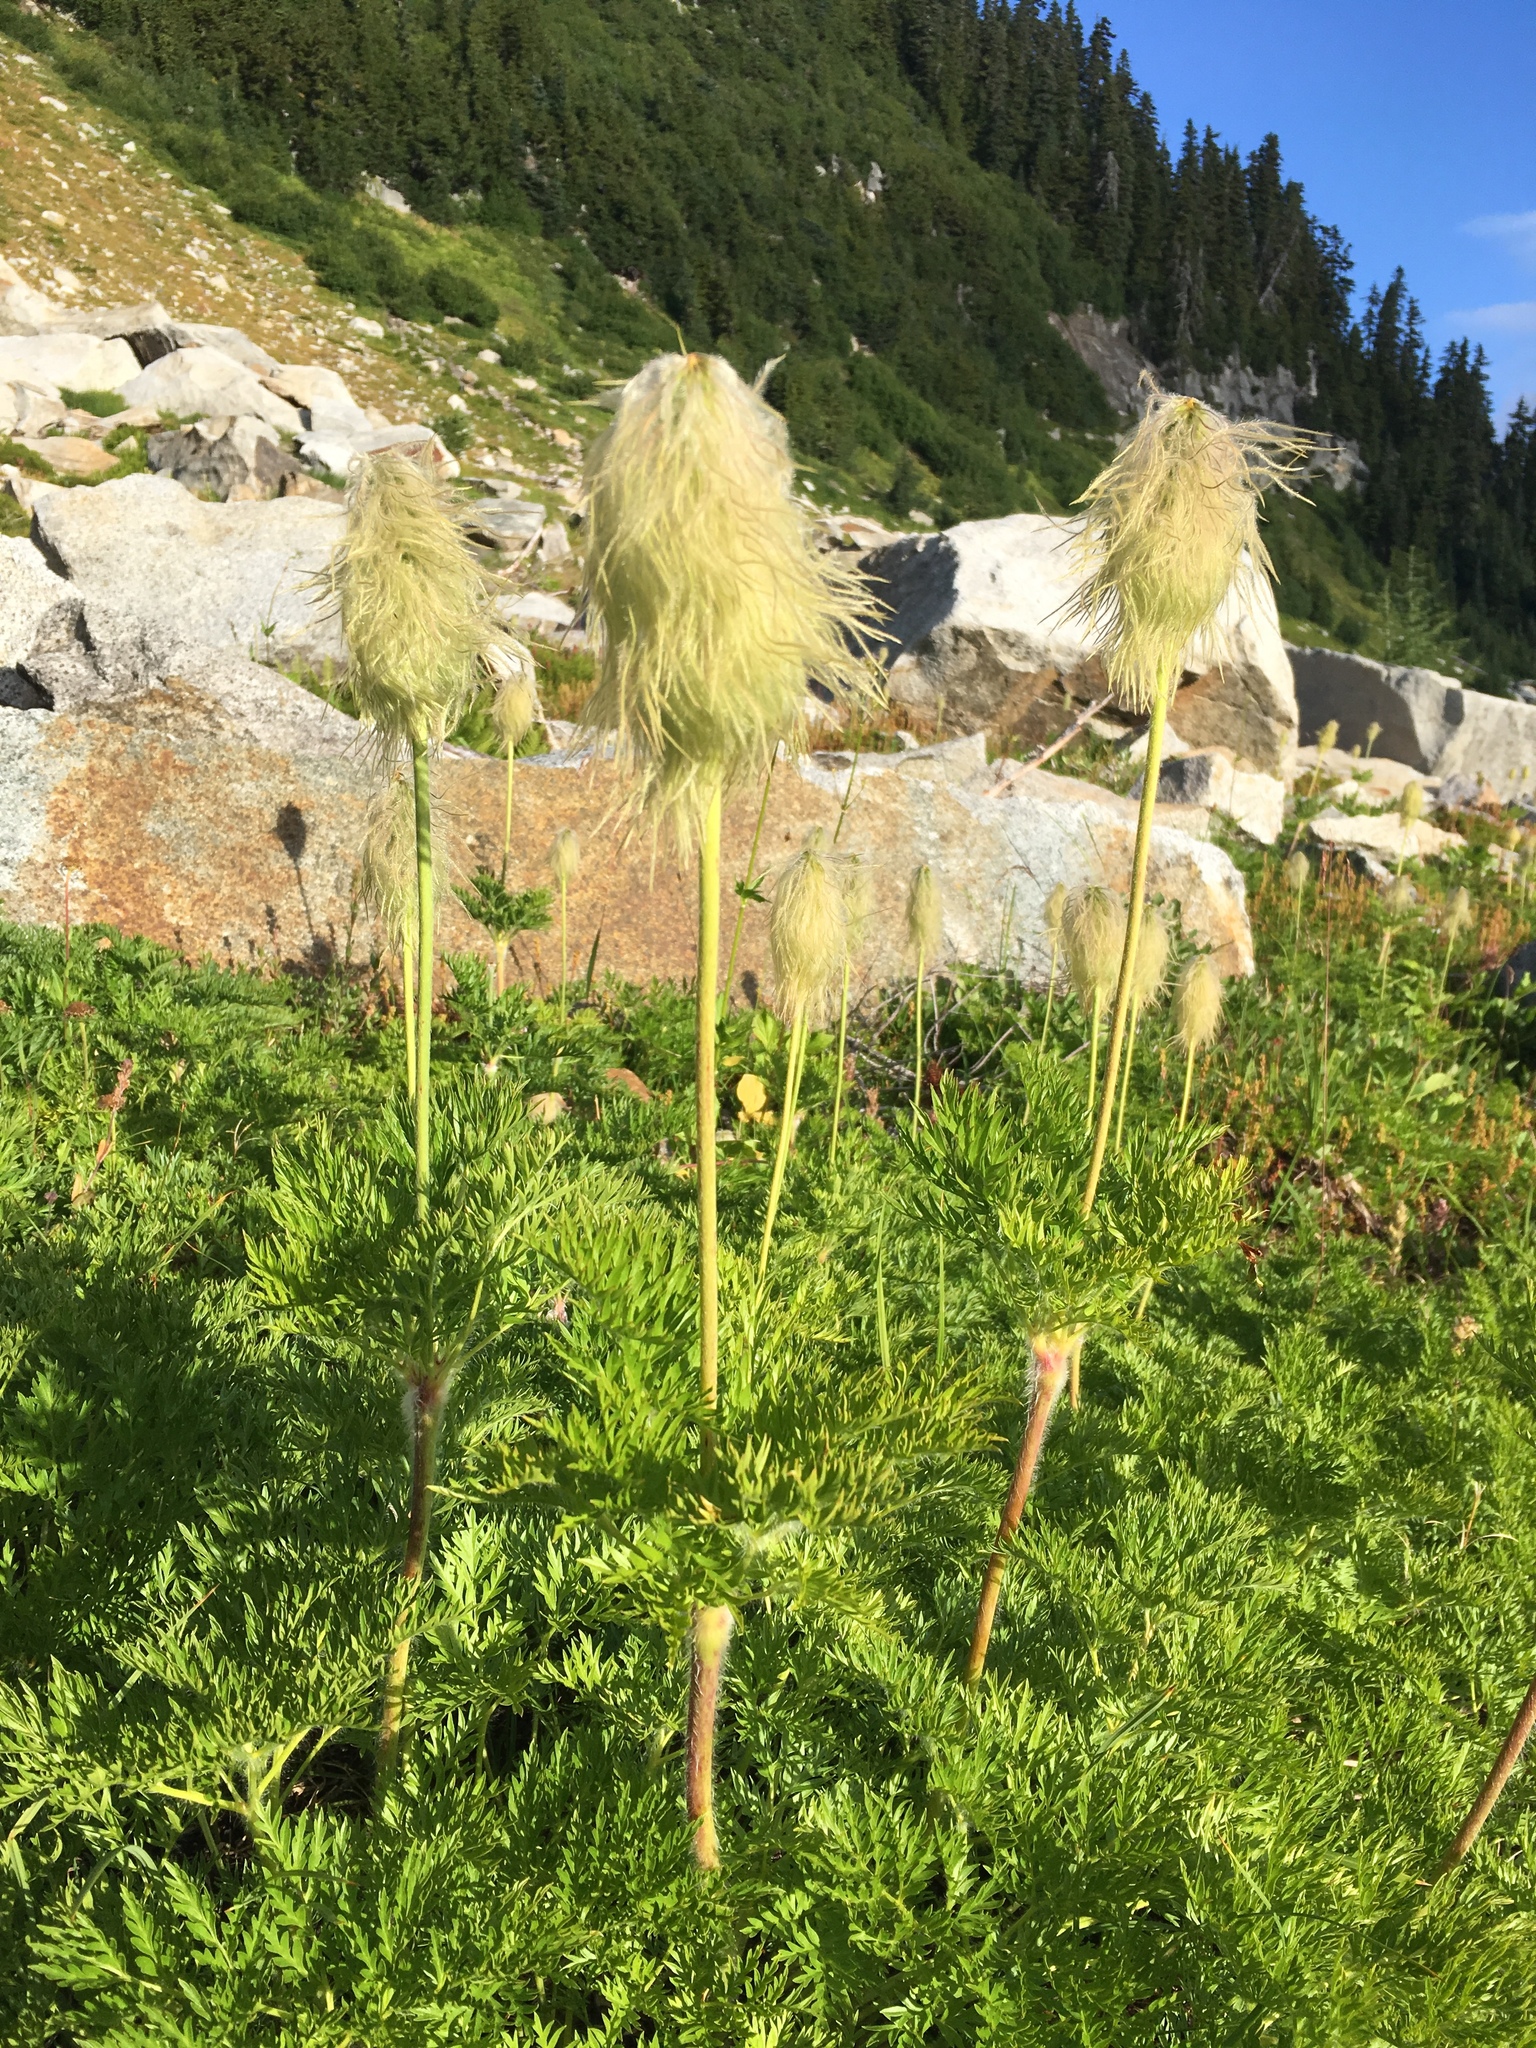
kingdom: Plantae
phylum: Tracheophyta
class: Magnoliopsida
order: Ranunculales
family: Ranunculaceae
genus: Pulsatilla
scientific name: Pulsatilla occidentalis
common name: Mountain pasqueflower
